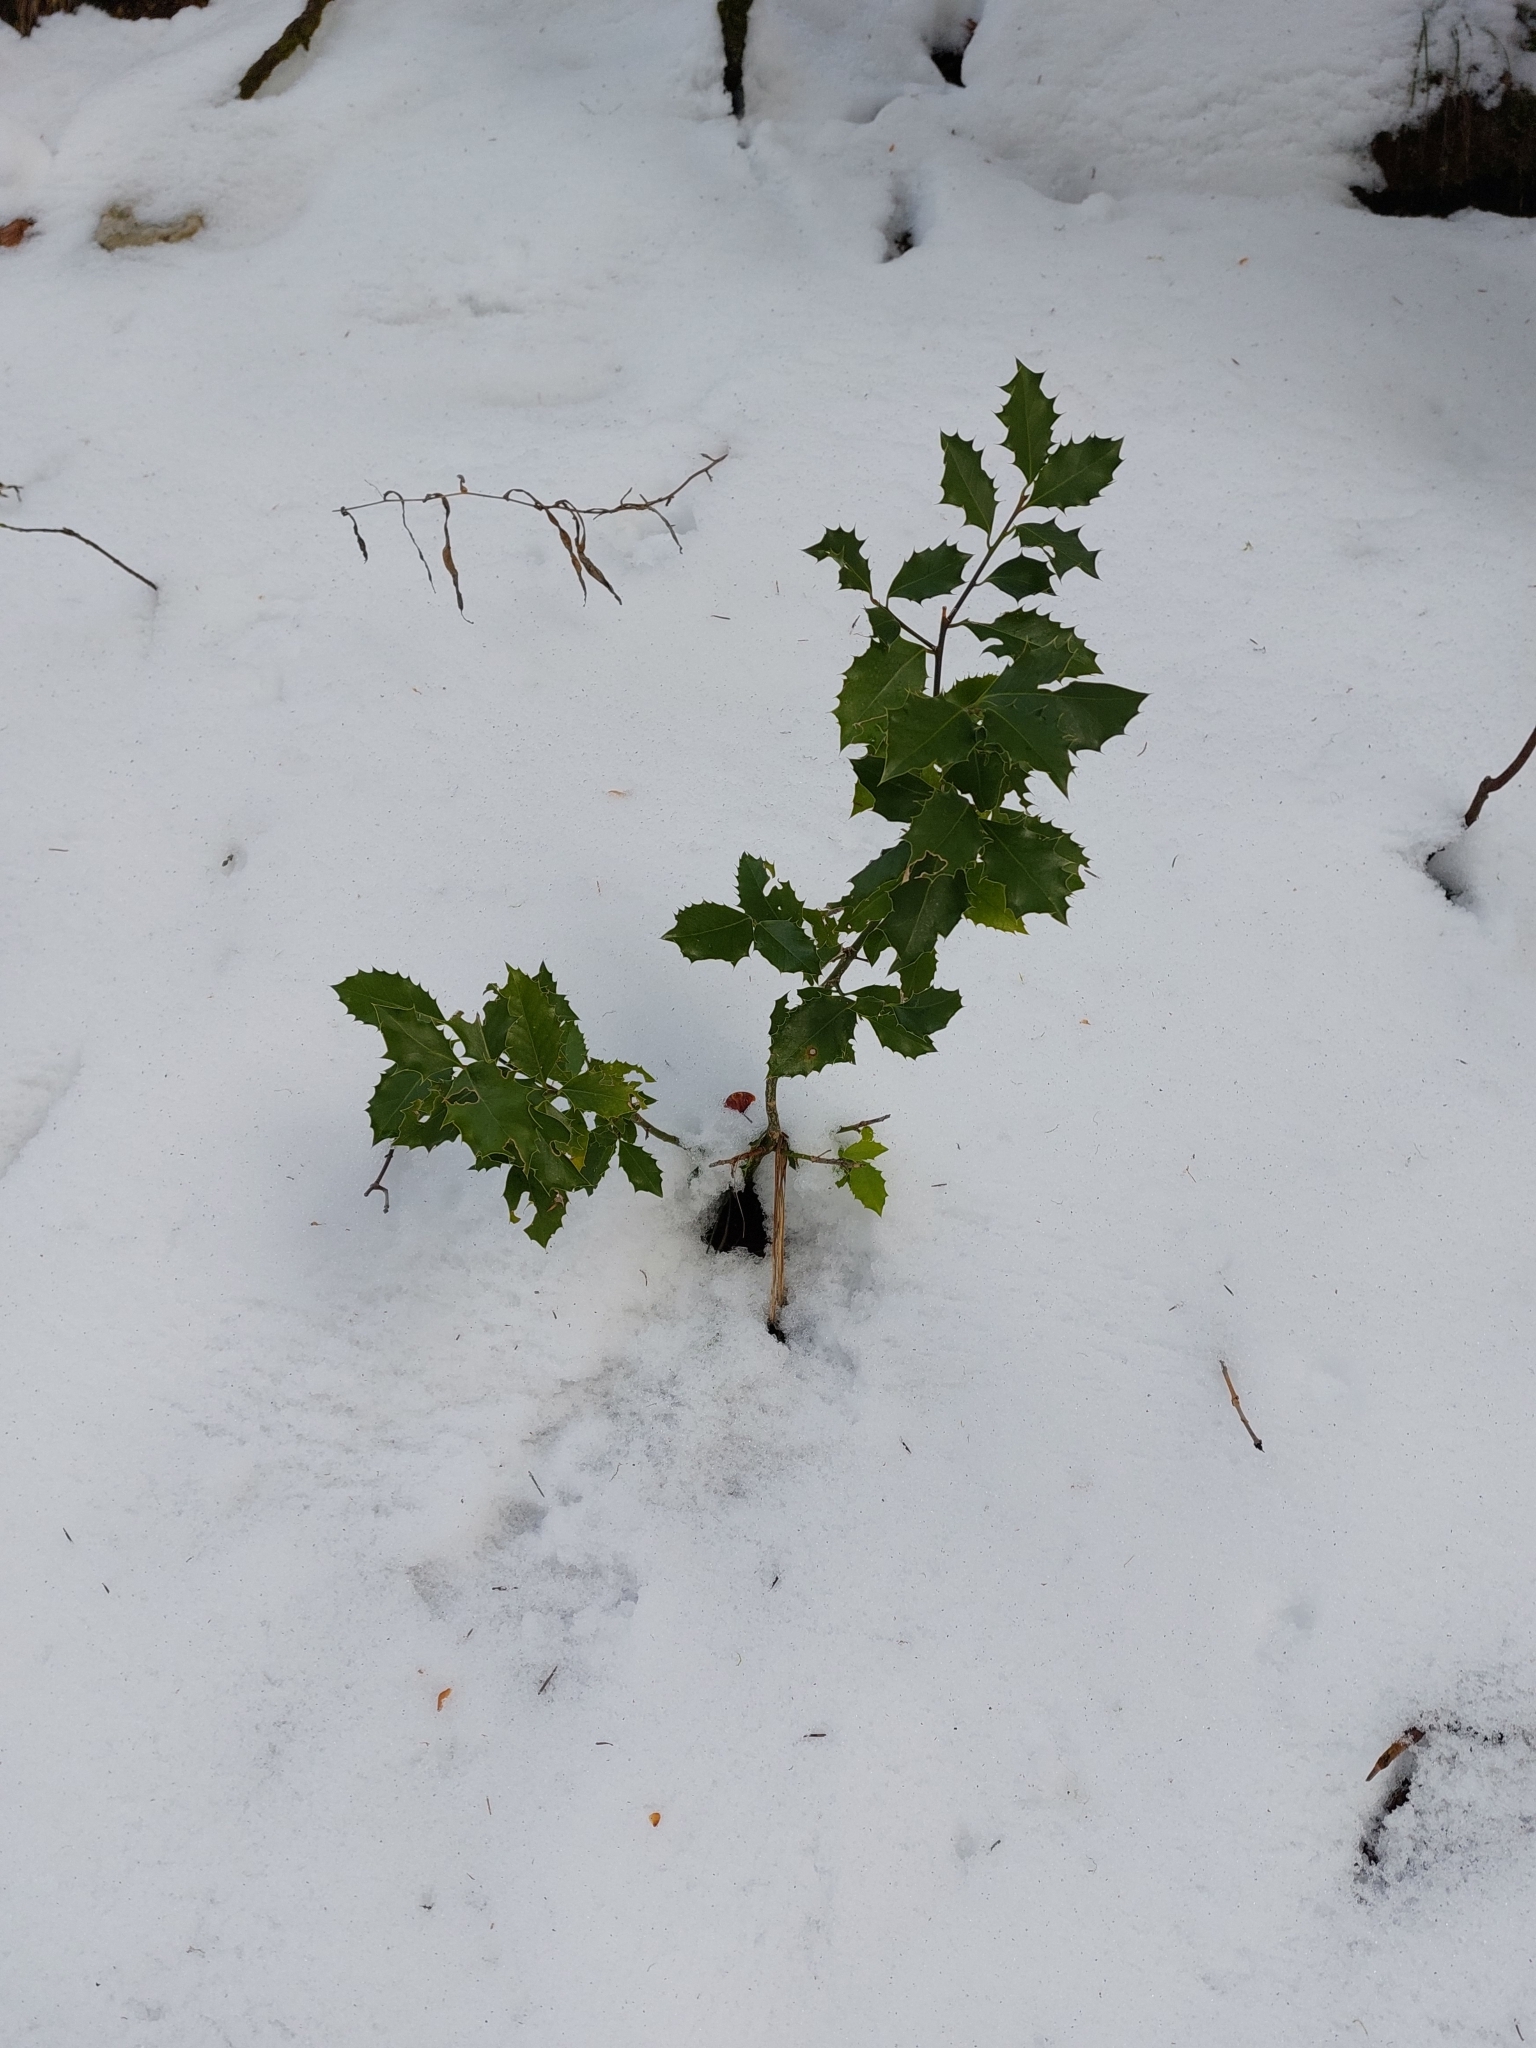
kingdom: Plantae
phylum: Tracheophyta
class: Magnoliopsida
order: Aquifoliales
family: Aquifoliaceae
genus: Ilex
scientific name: Ilex aquifolium
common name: English holly
